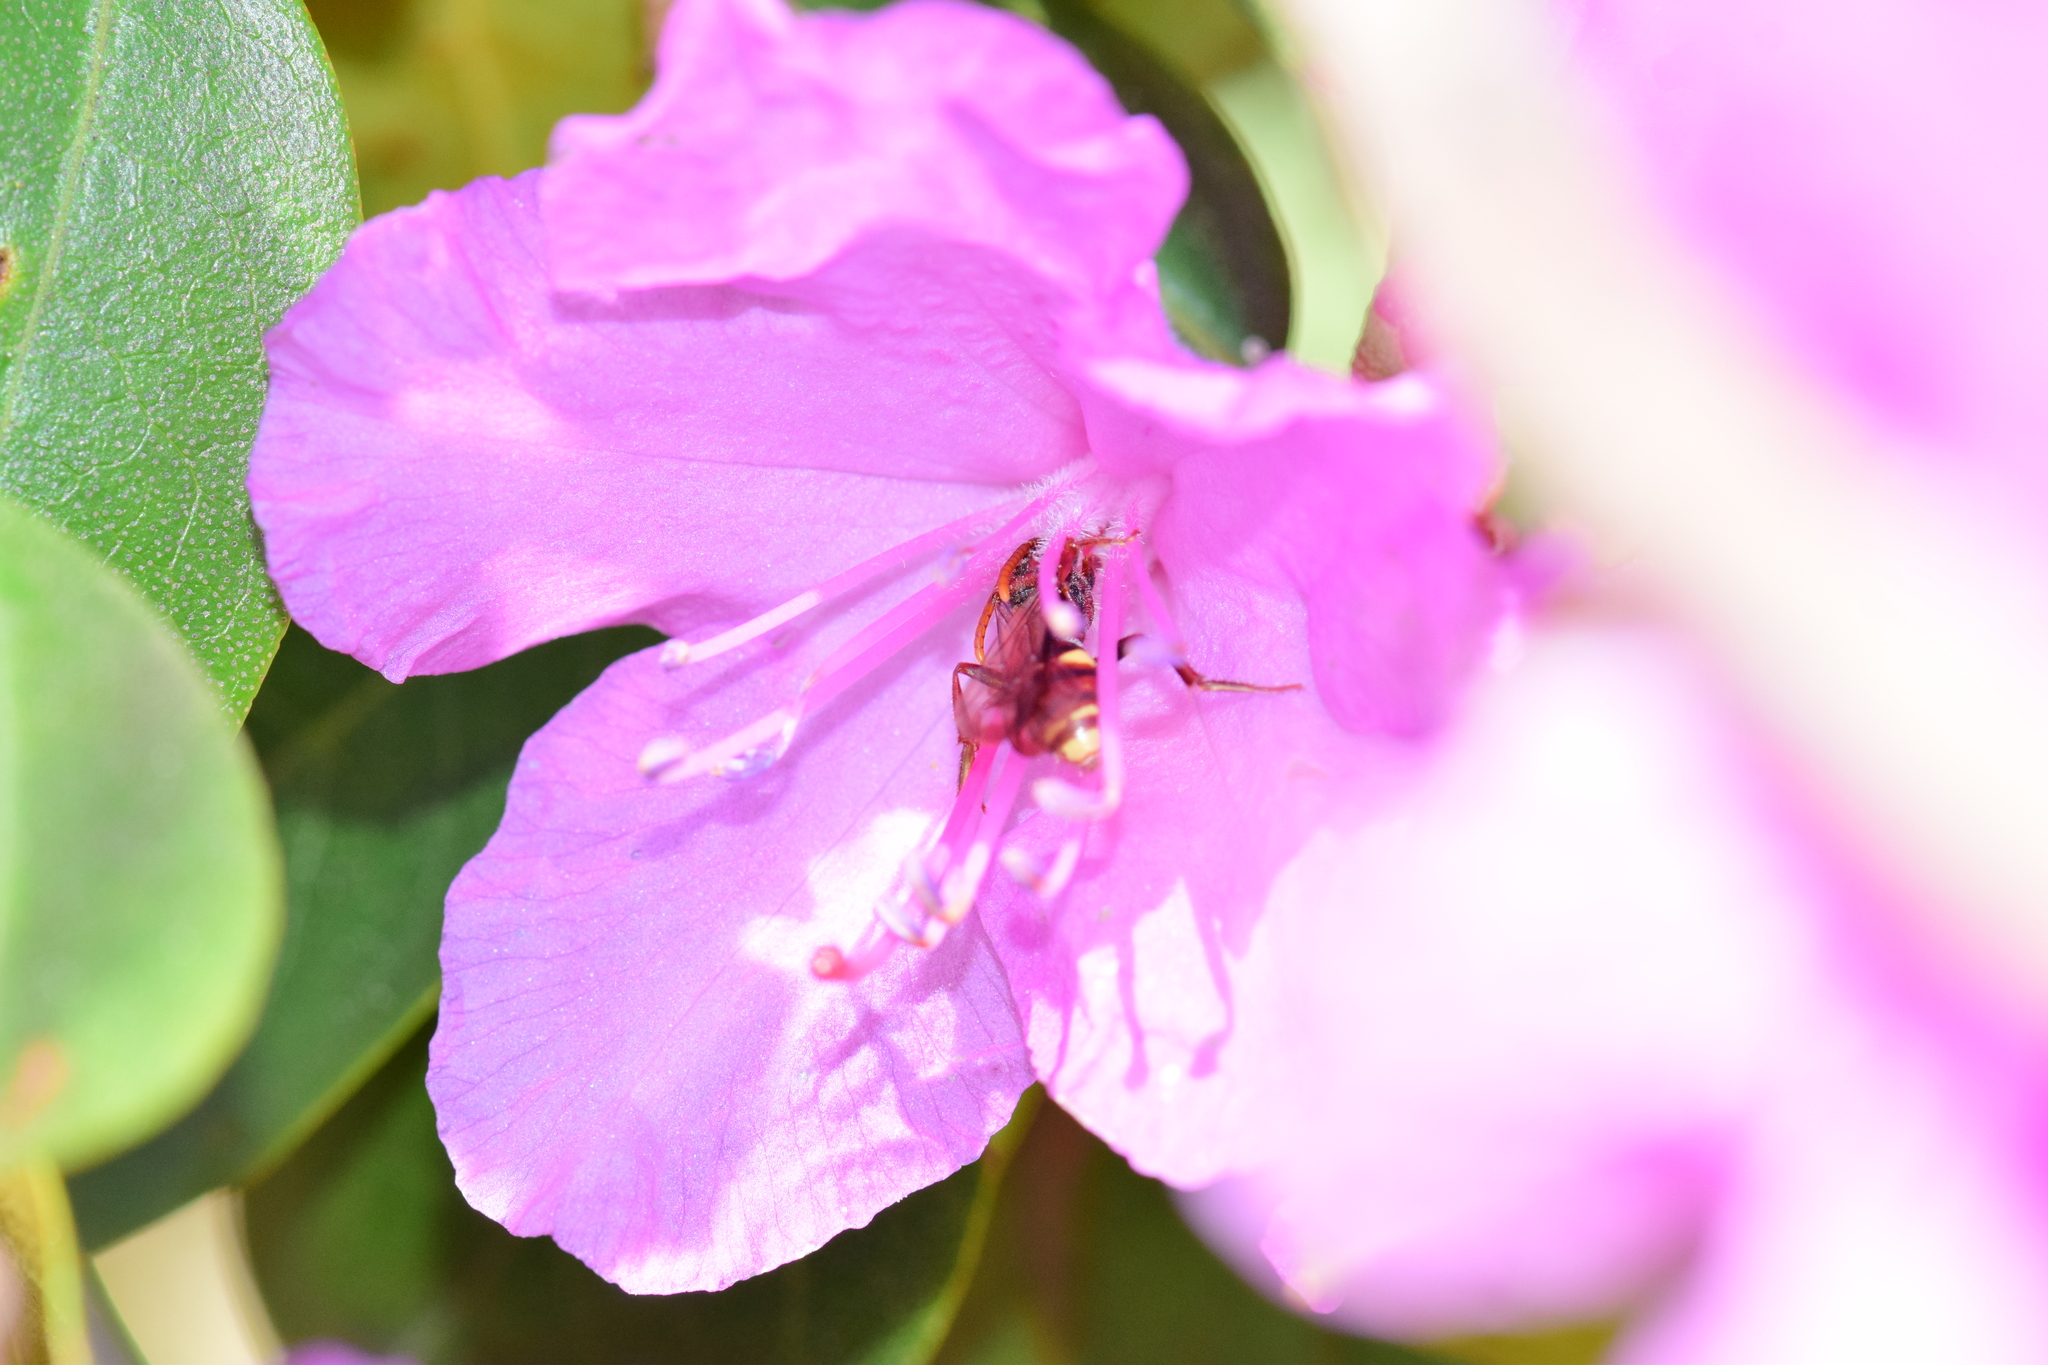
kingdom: Animalia
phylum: Arthropoda
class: Insecta
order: Hymenoptera
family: Apidae
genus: Nomada
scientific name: Nomada gracilis
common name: Slender cuckoo nomad bee
